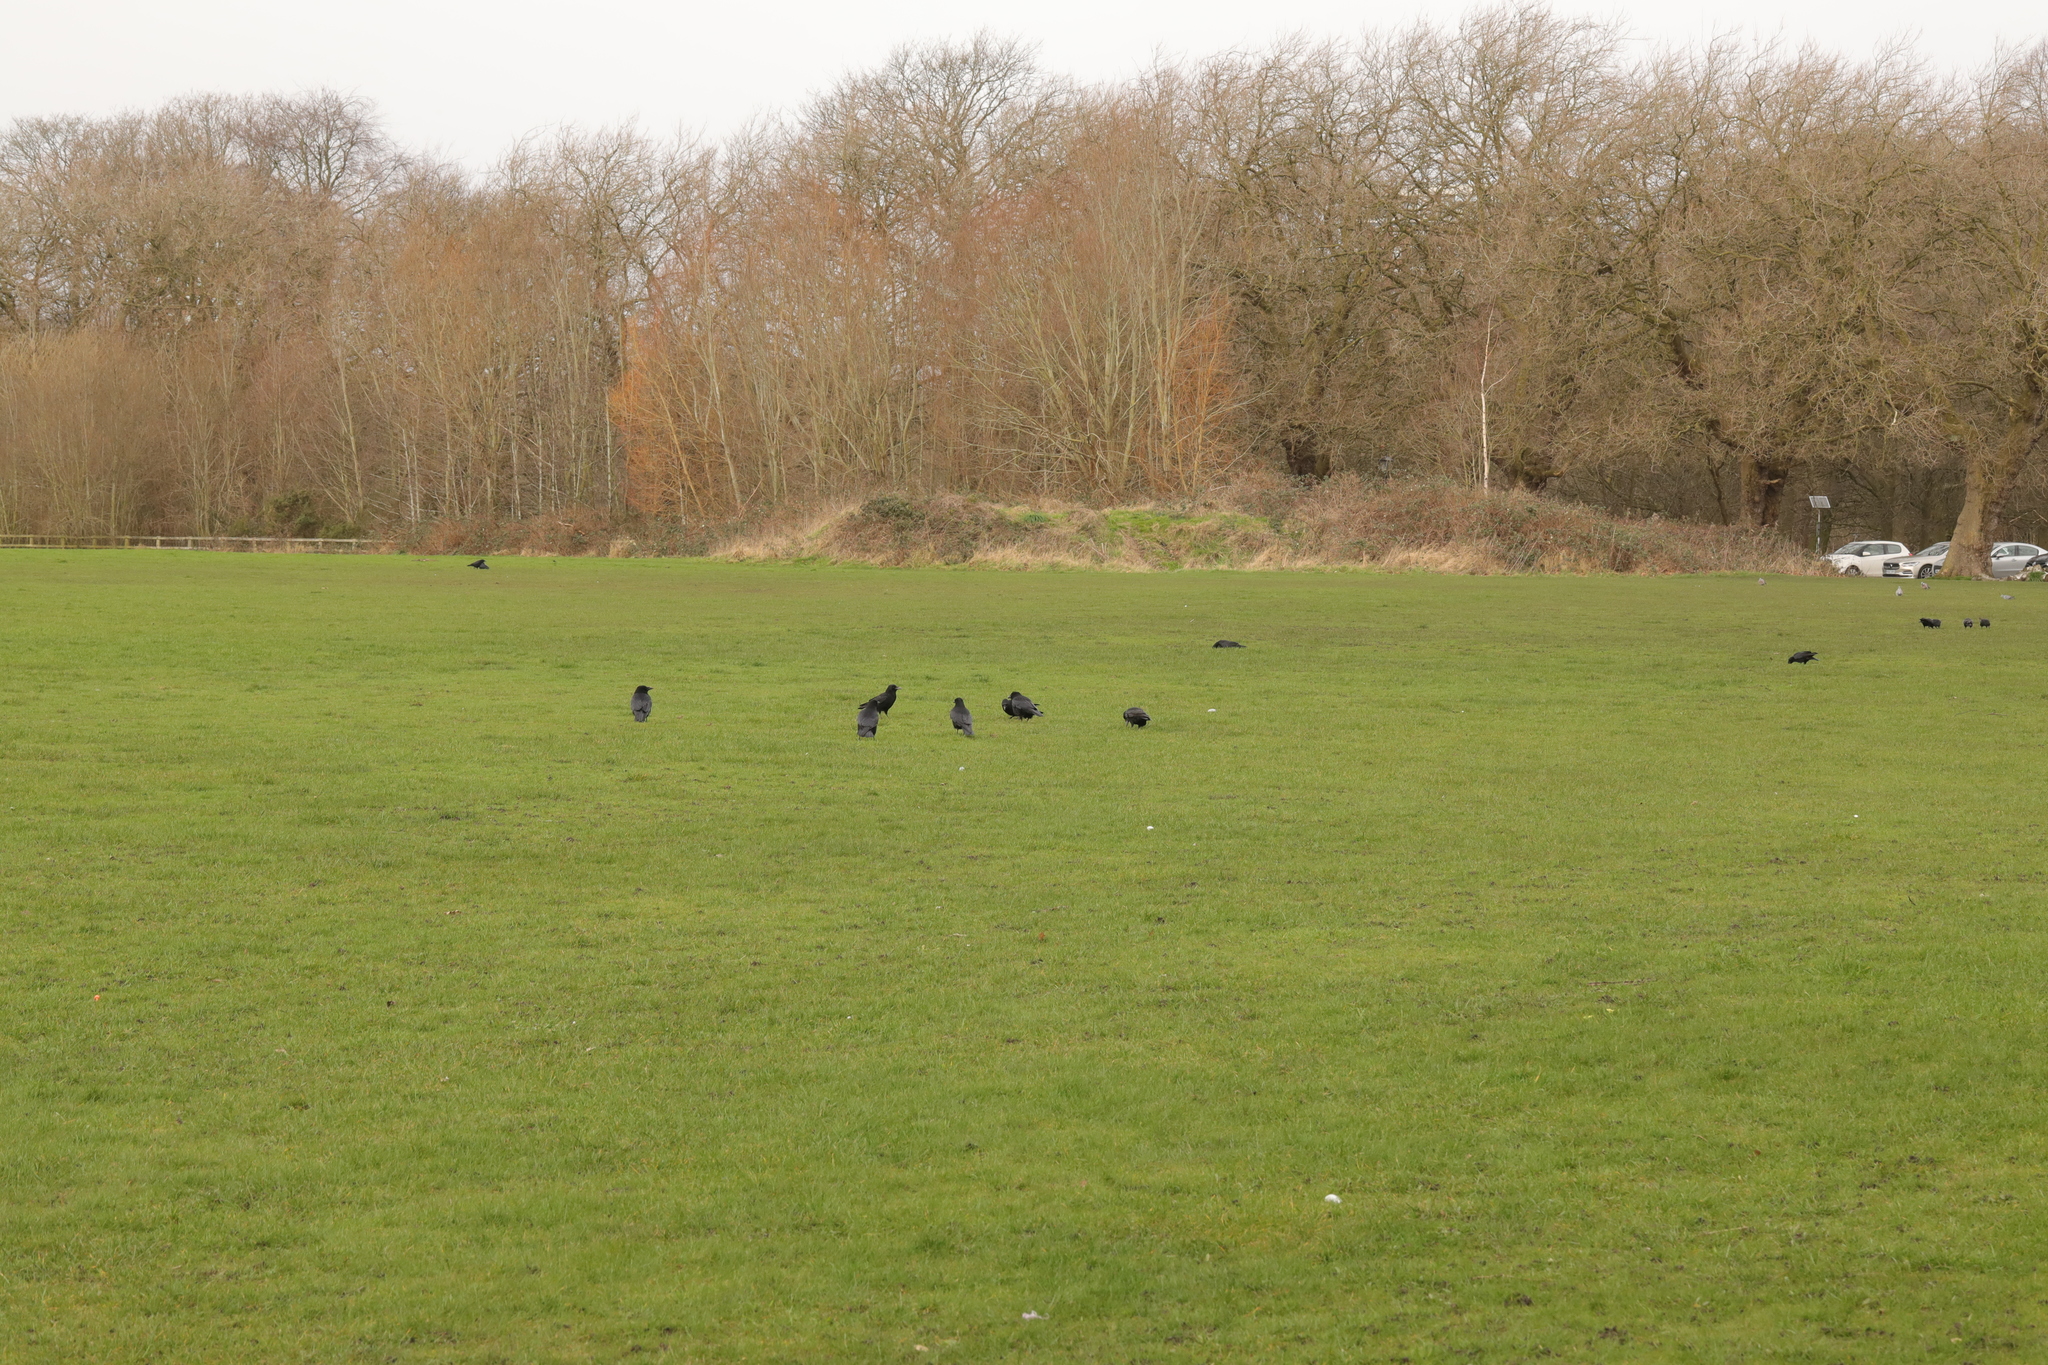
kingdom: Animalia
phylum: Chordata
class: Aves
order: Passeriformes
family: Corvidae
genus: Corvus
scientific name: Corvus corone
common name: Carrion crow
